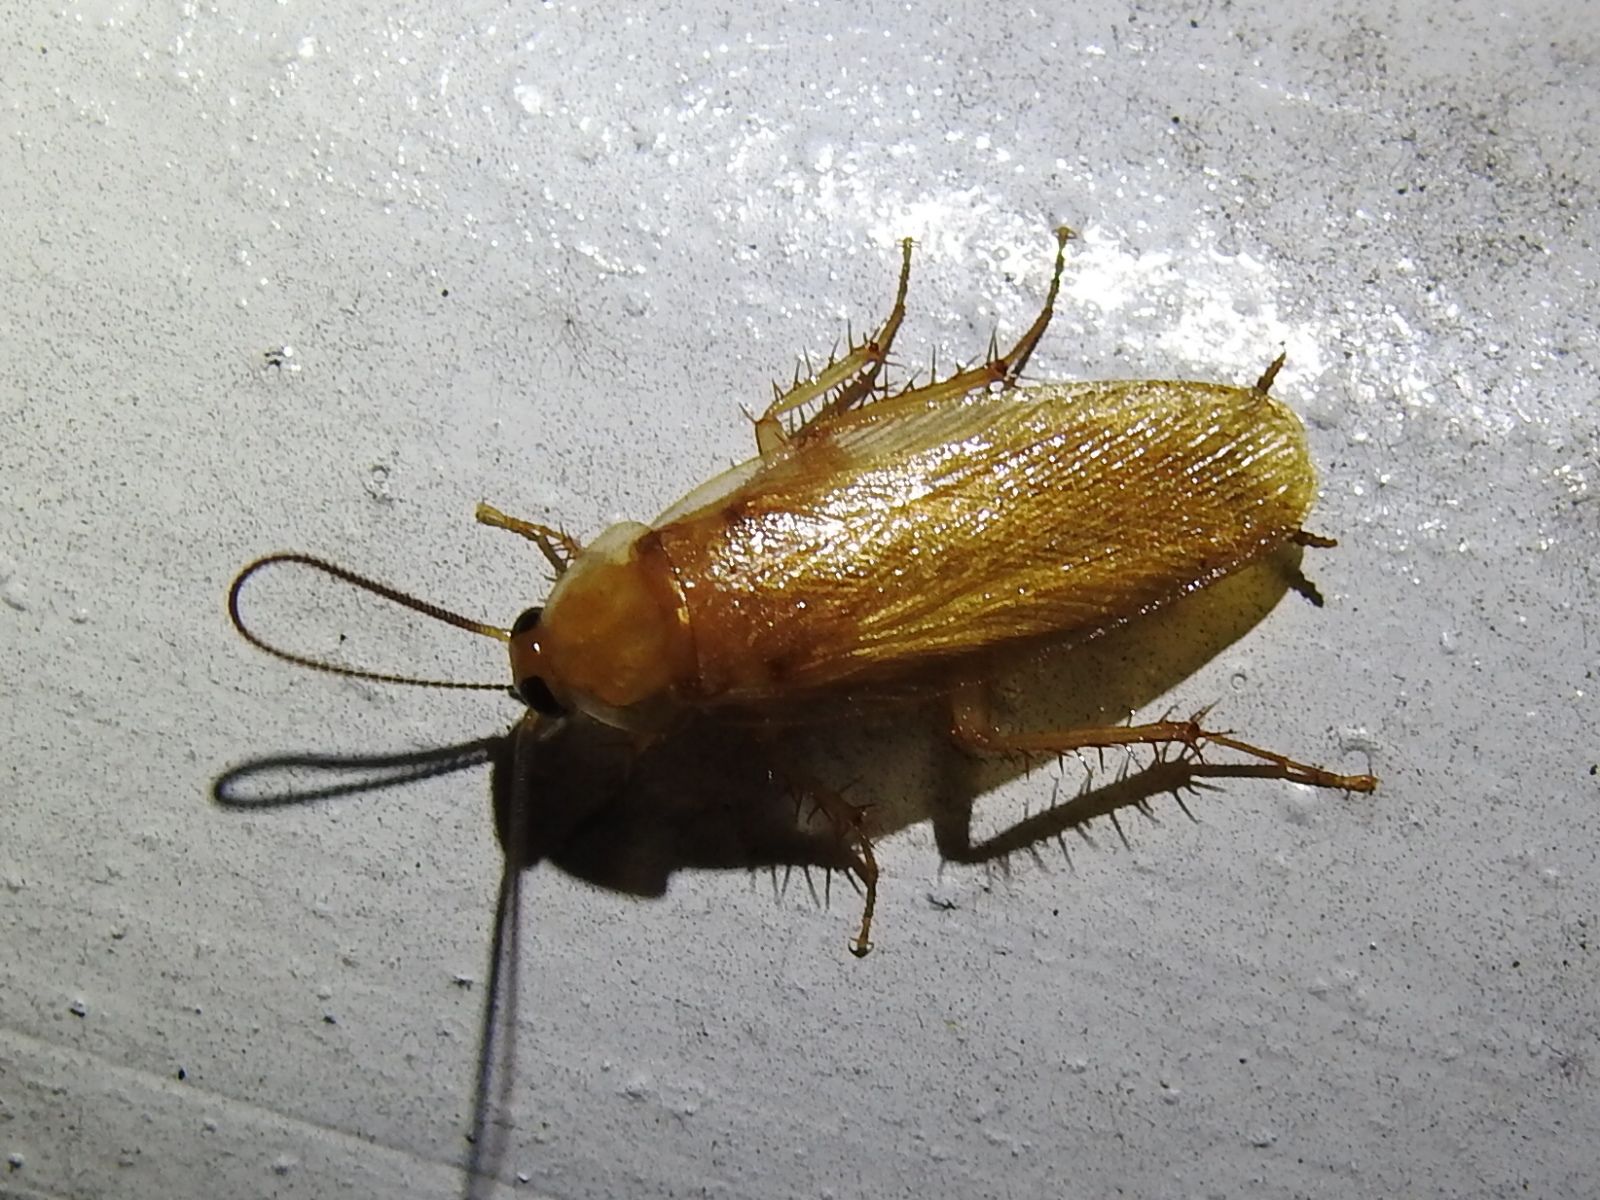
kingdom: Animalia
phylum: Arthropoda
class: Insecta
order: Blattodea
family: Blattidae
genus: Periplaneta
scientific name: Periplaneta lateralis
